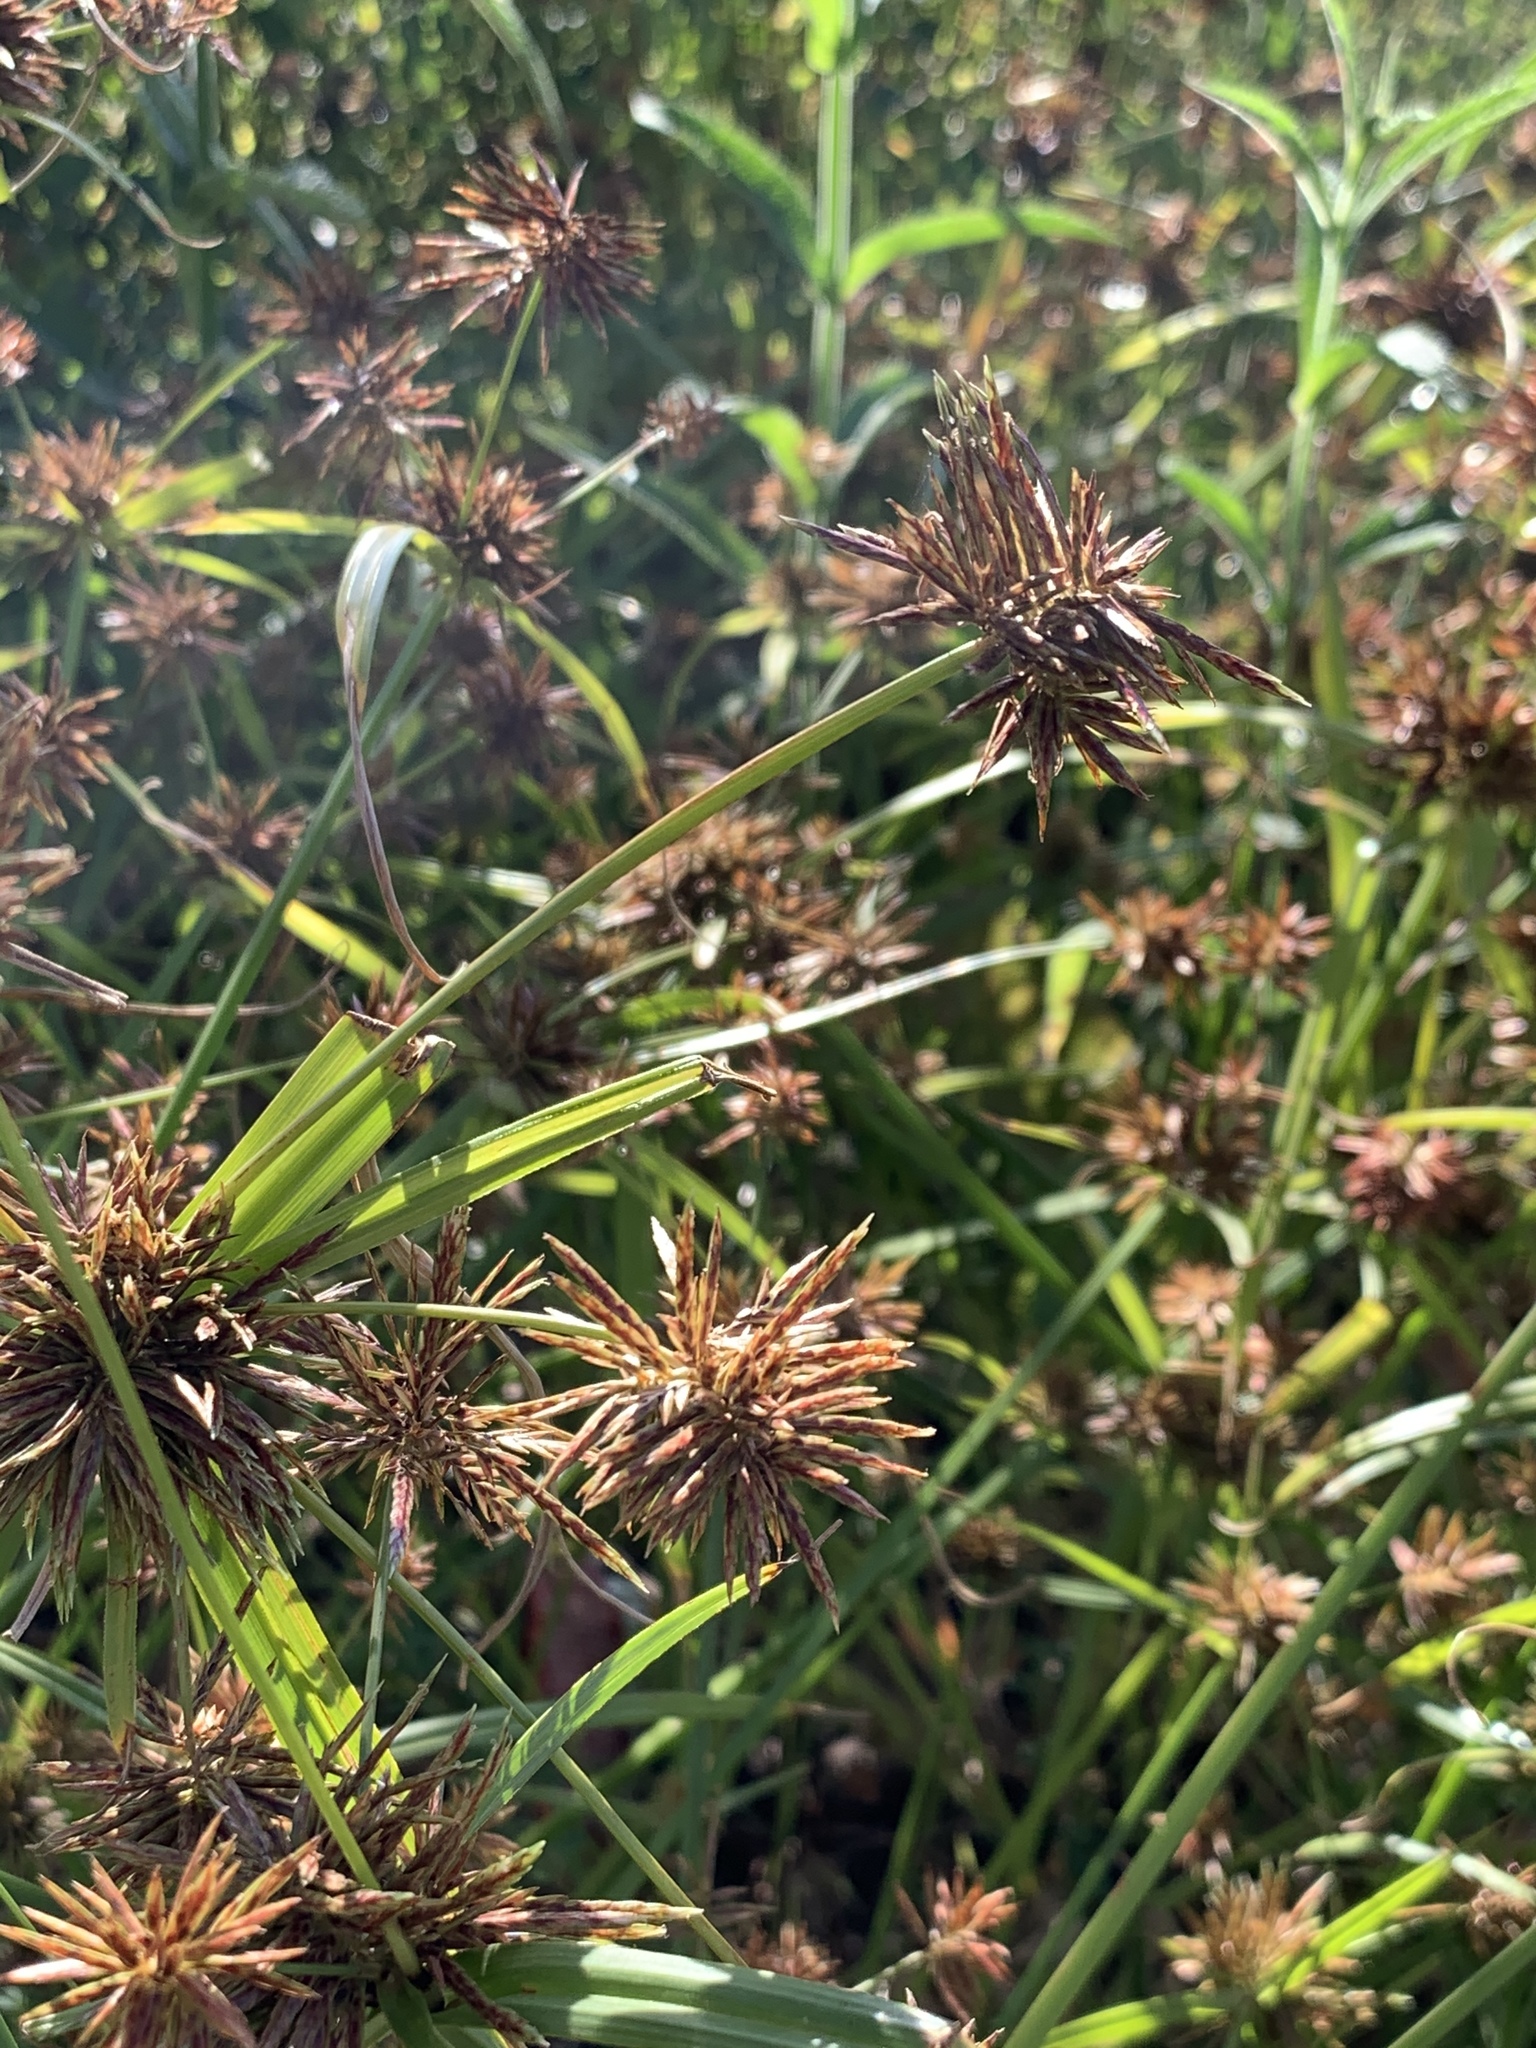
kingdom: Plantae
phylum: Tracheophyta
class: Liliopsida
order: Poales
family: Cyperaceae
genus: Cyperus
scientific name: Cyperus congestus
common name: Dense flat sedge
